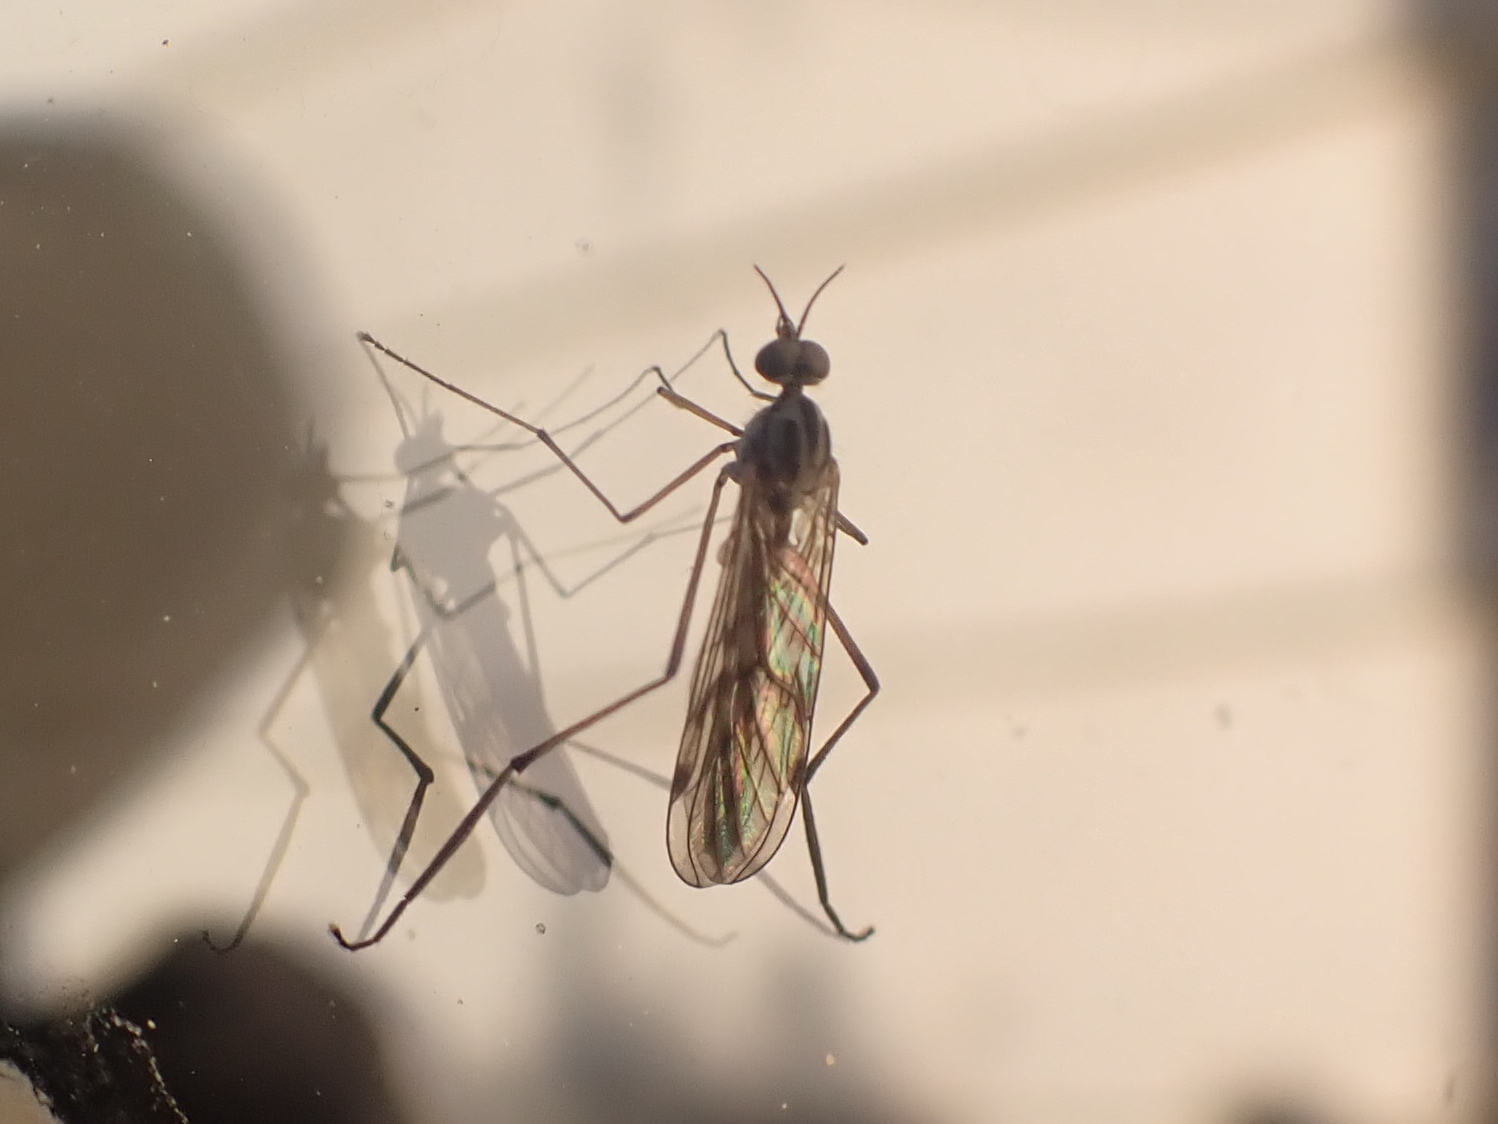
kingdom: Animalia
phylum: Arthropoda
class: Insecta
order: Diptera
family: Anisopodidae
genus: Sylvicola
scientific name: Sylvicola fuscatus
